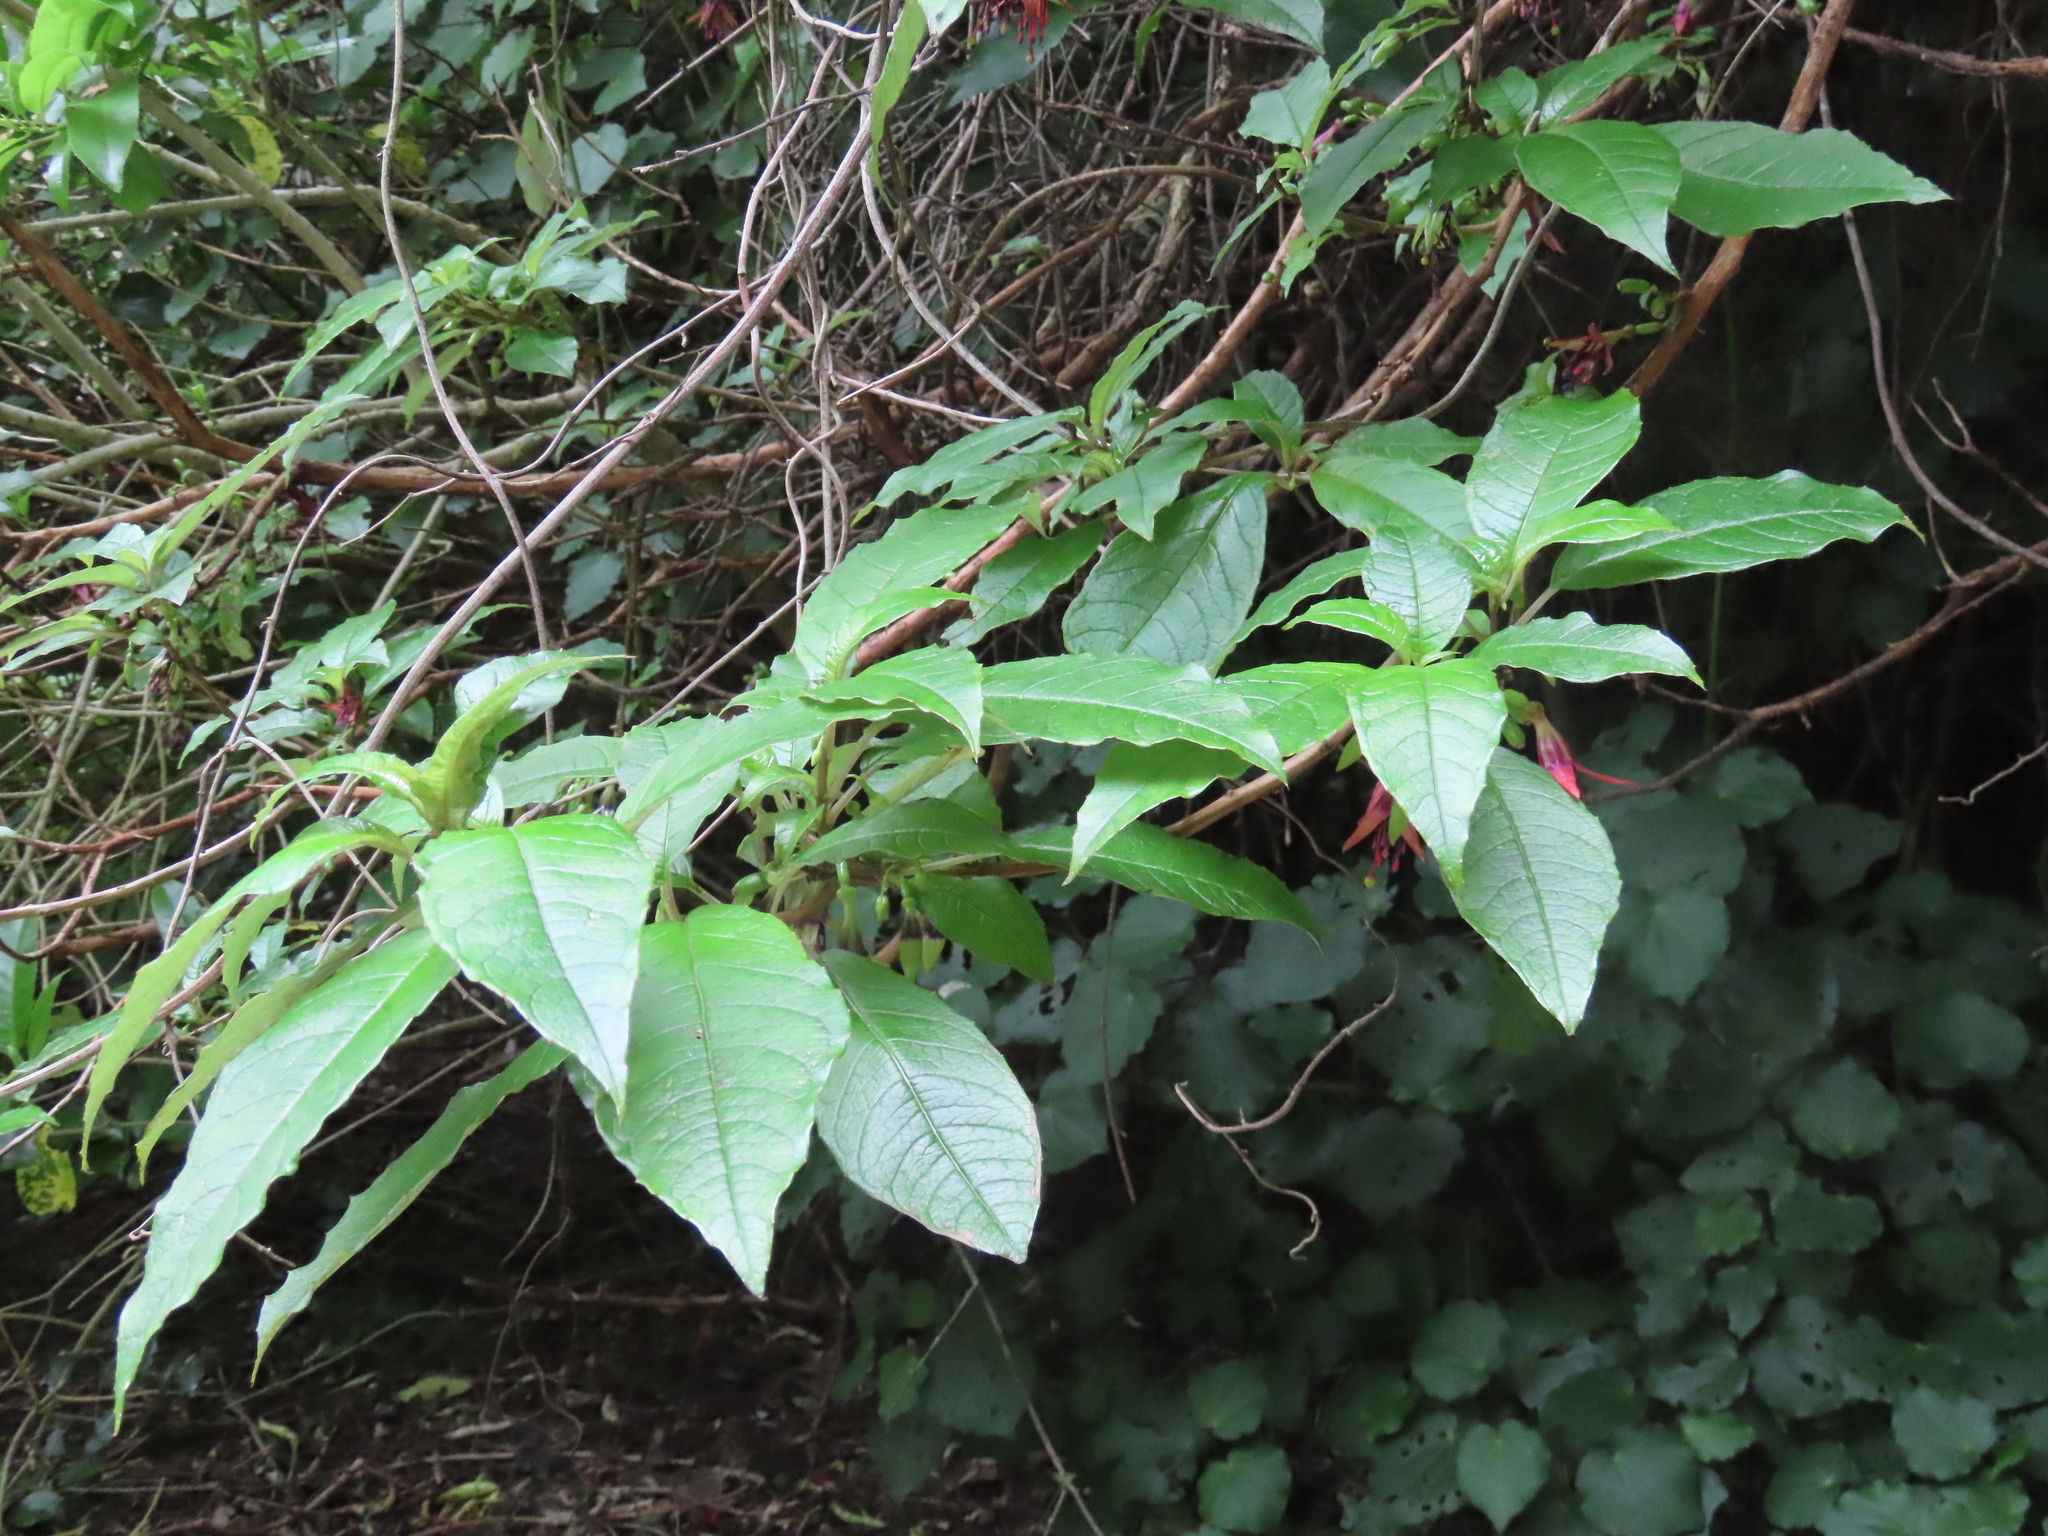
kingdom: Plantae
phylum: Tracheophyta
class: Magnoliopsida
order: Myrtales
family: Onagraceae
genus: Fuchsia
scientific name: Fuchsia excorticata
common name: Tree fuchsia
